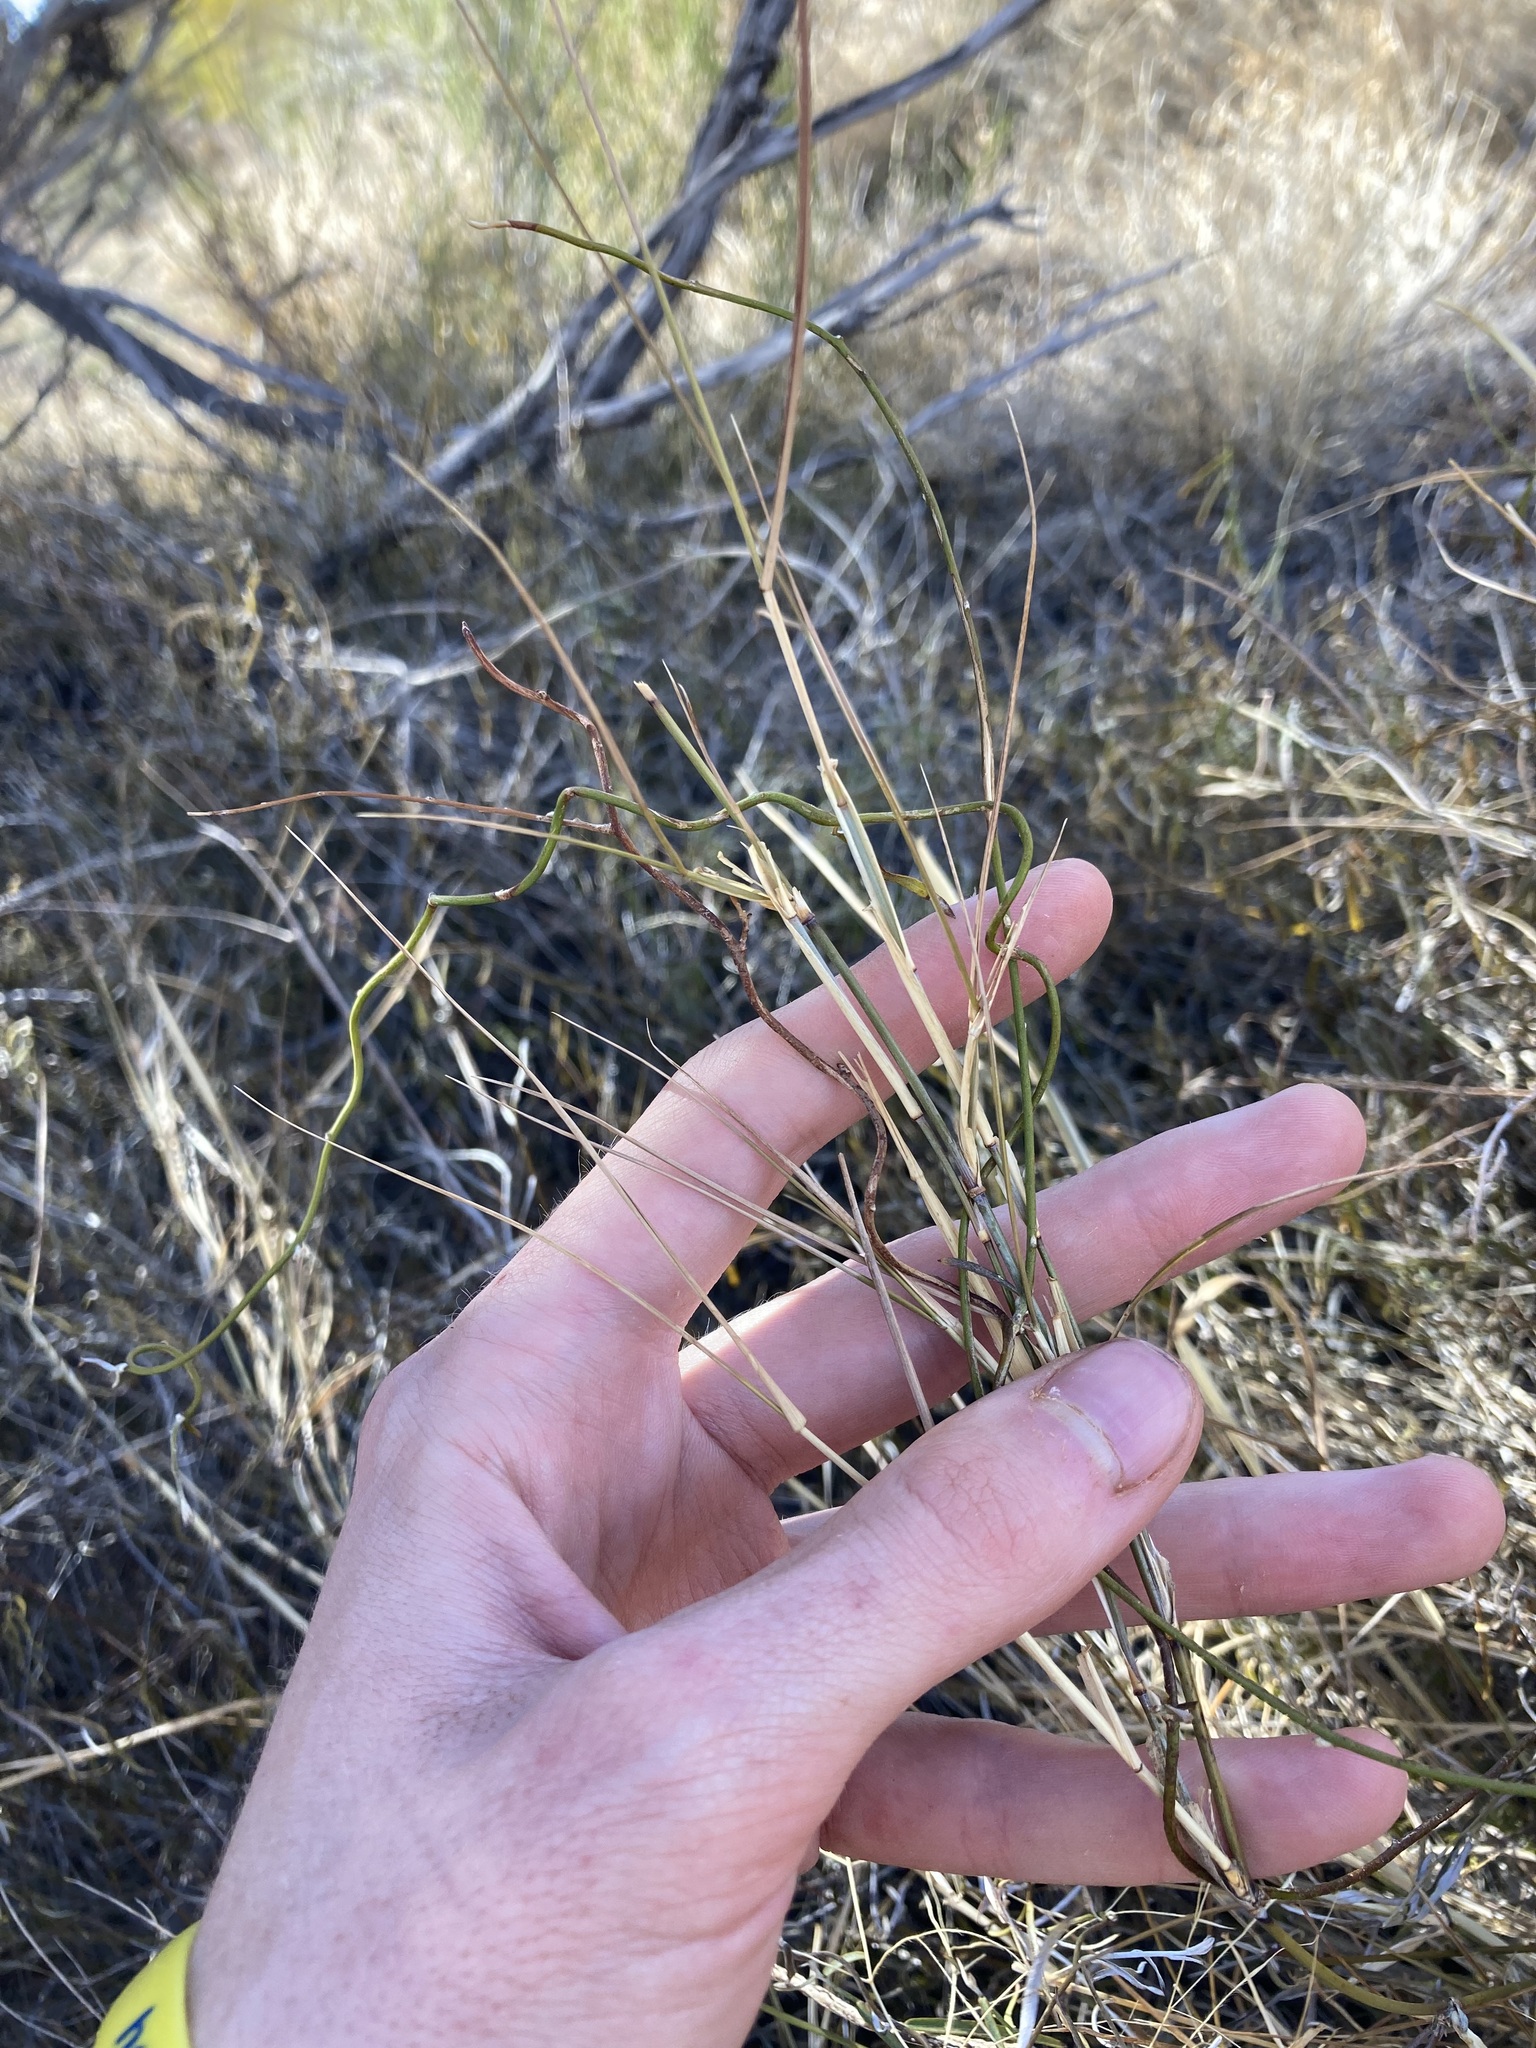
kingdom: Plantae
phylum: Tracheophyta
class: Liliopsida
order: Poales
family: Poaceae
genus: Austrostipa
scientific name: Austrostipa elegantissima
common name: Feather spear grass
